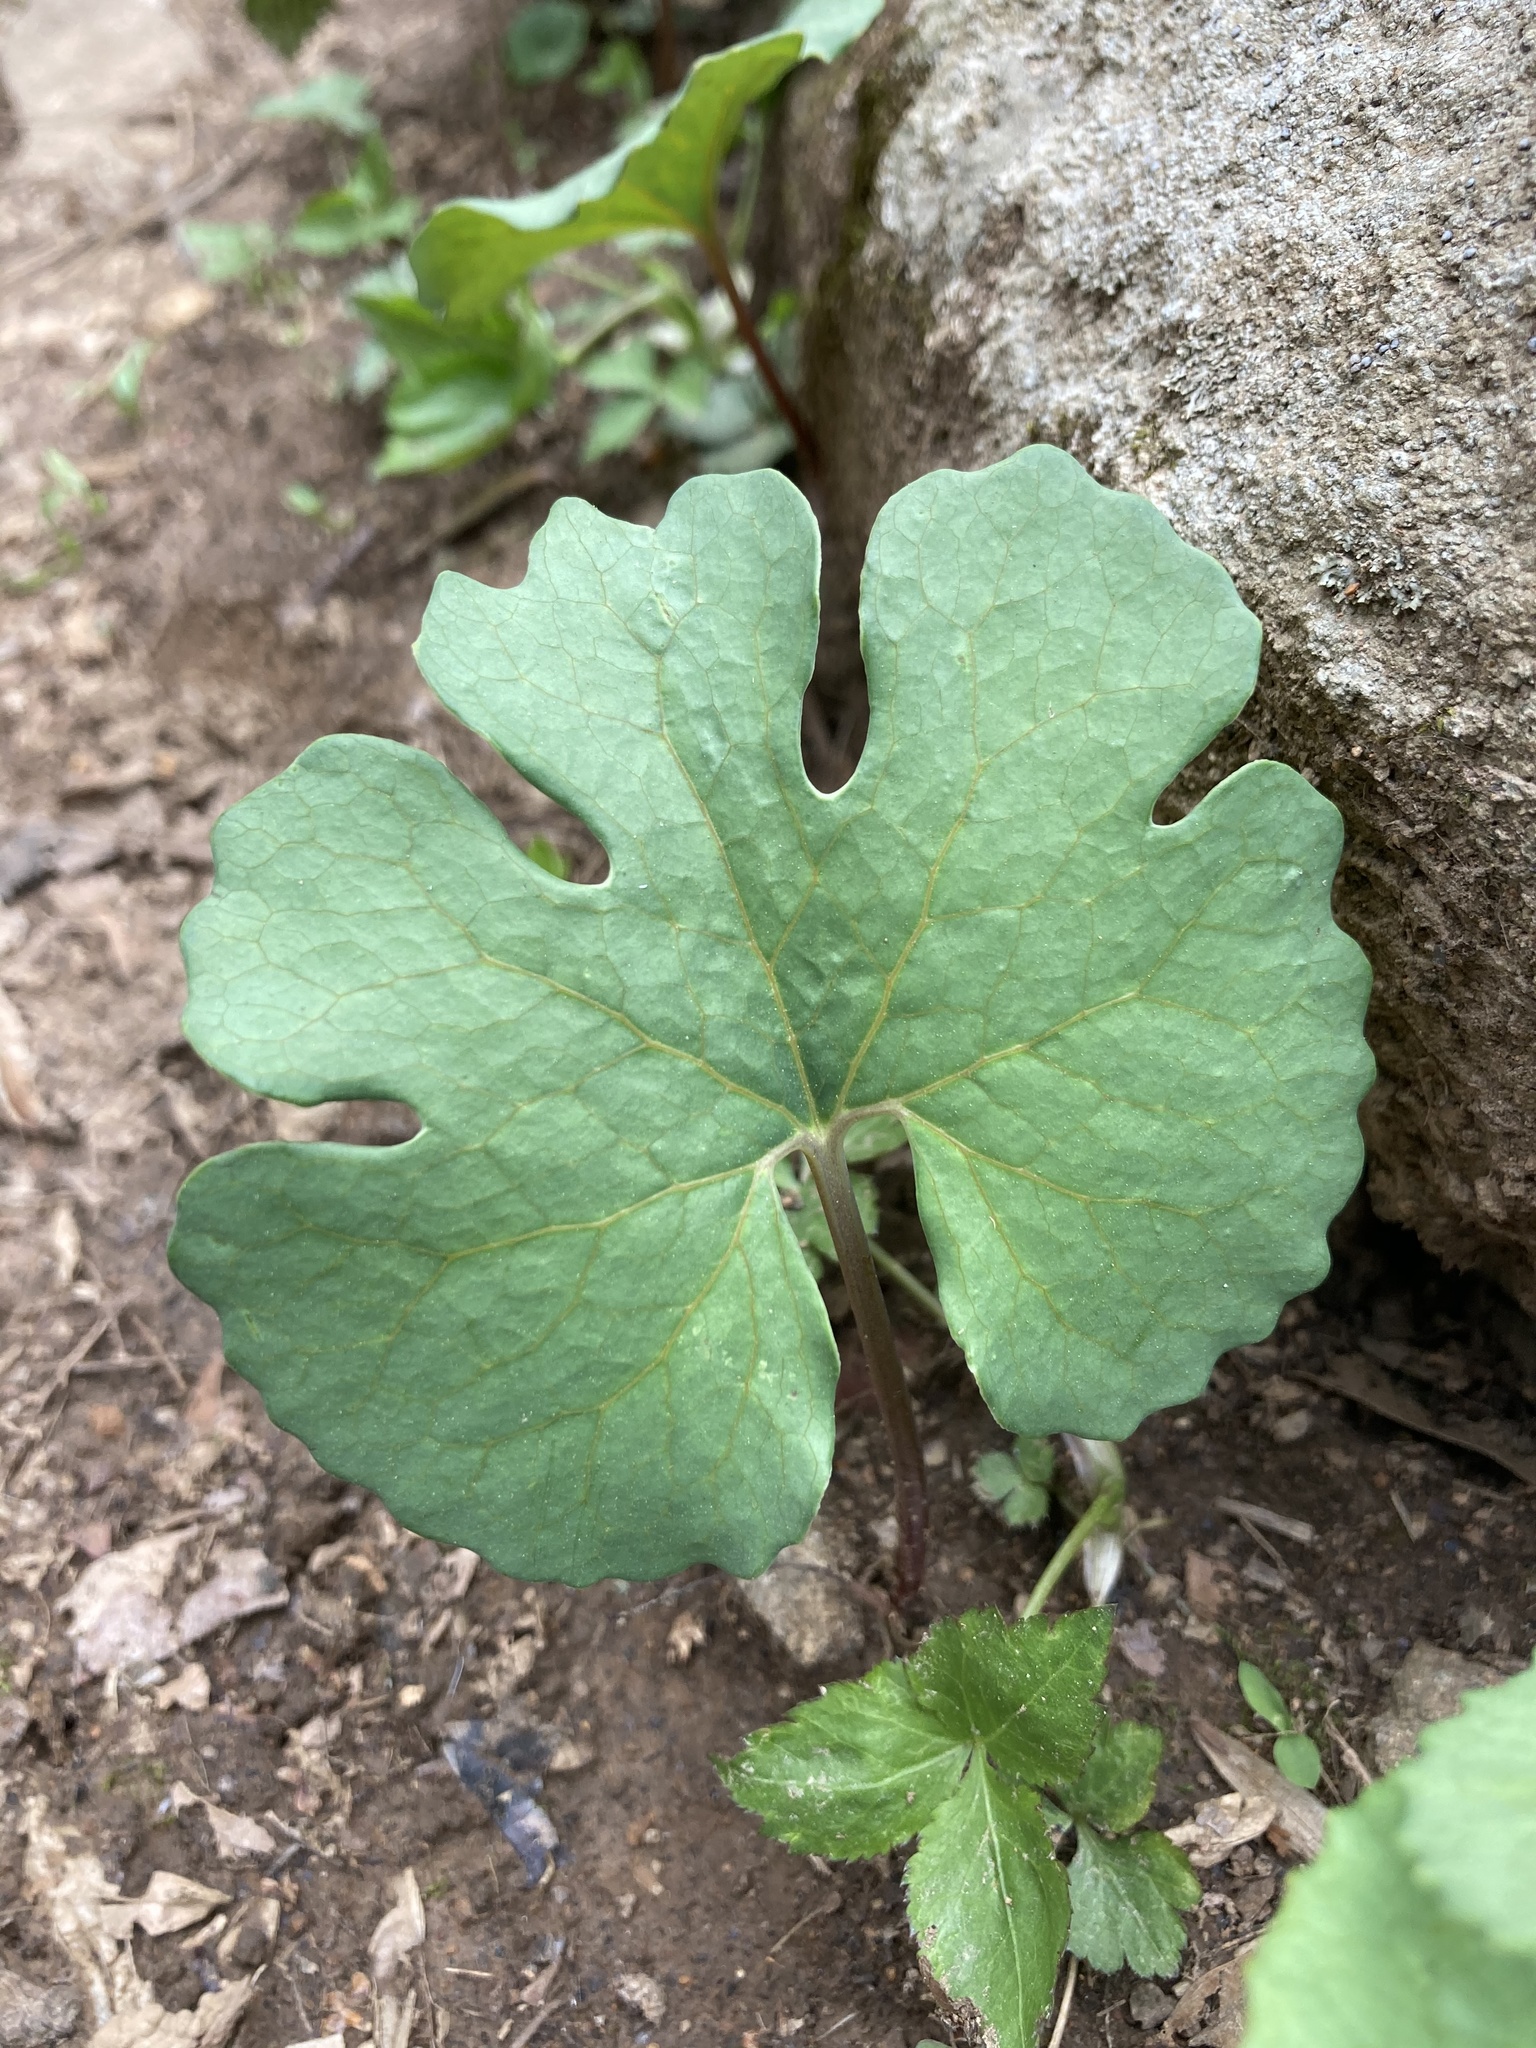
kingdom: Plantae
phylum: Tracheophyta
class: Magnoliopsida
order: Ranunculales
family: Papaveraceae
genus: Sanguinaria
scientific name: Sanguinaria canadensis
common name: Bloodroot
